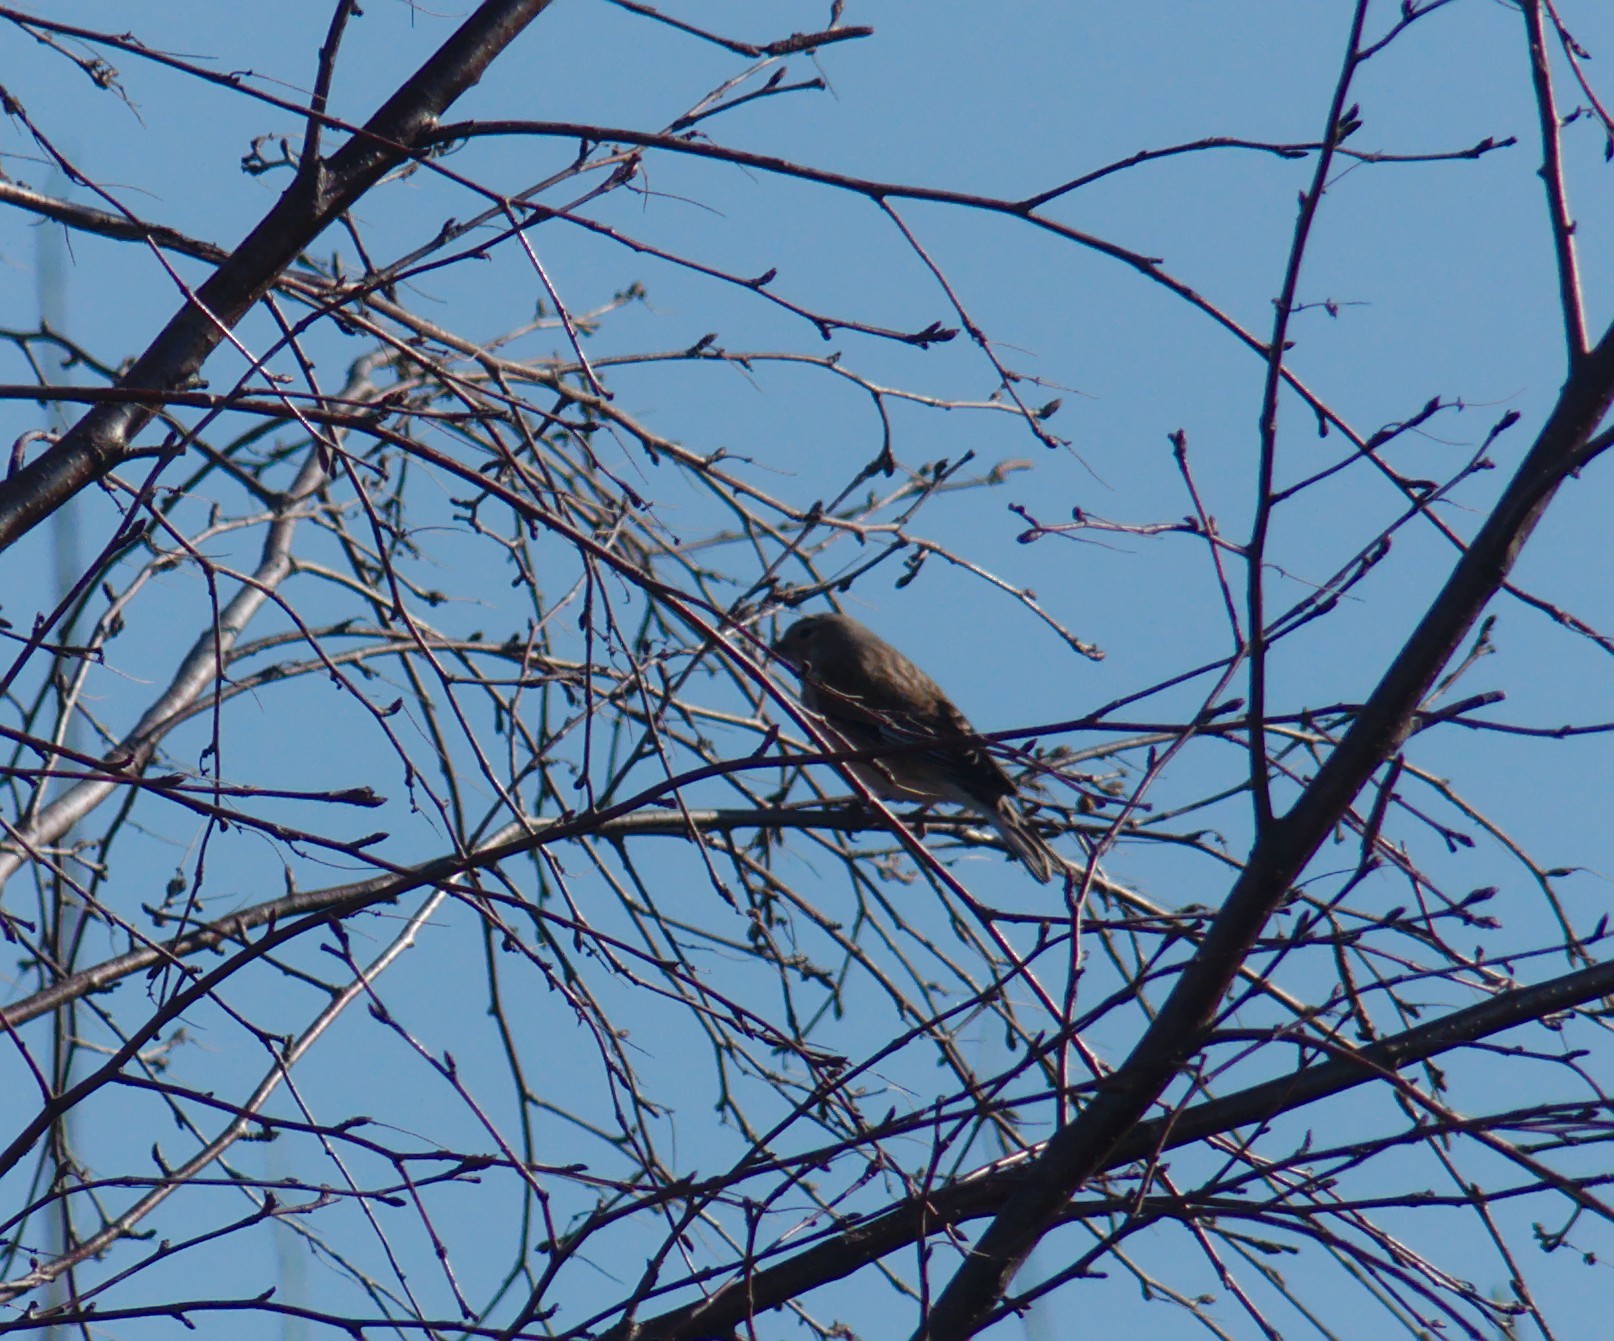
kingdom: Animalia
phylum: Chordata
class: Aves
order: Passeriformes
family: Fringillidae
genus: Linaria
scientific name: Linaria cannabina
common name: Common linnet
